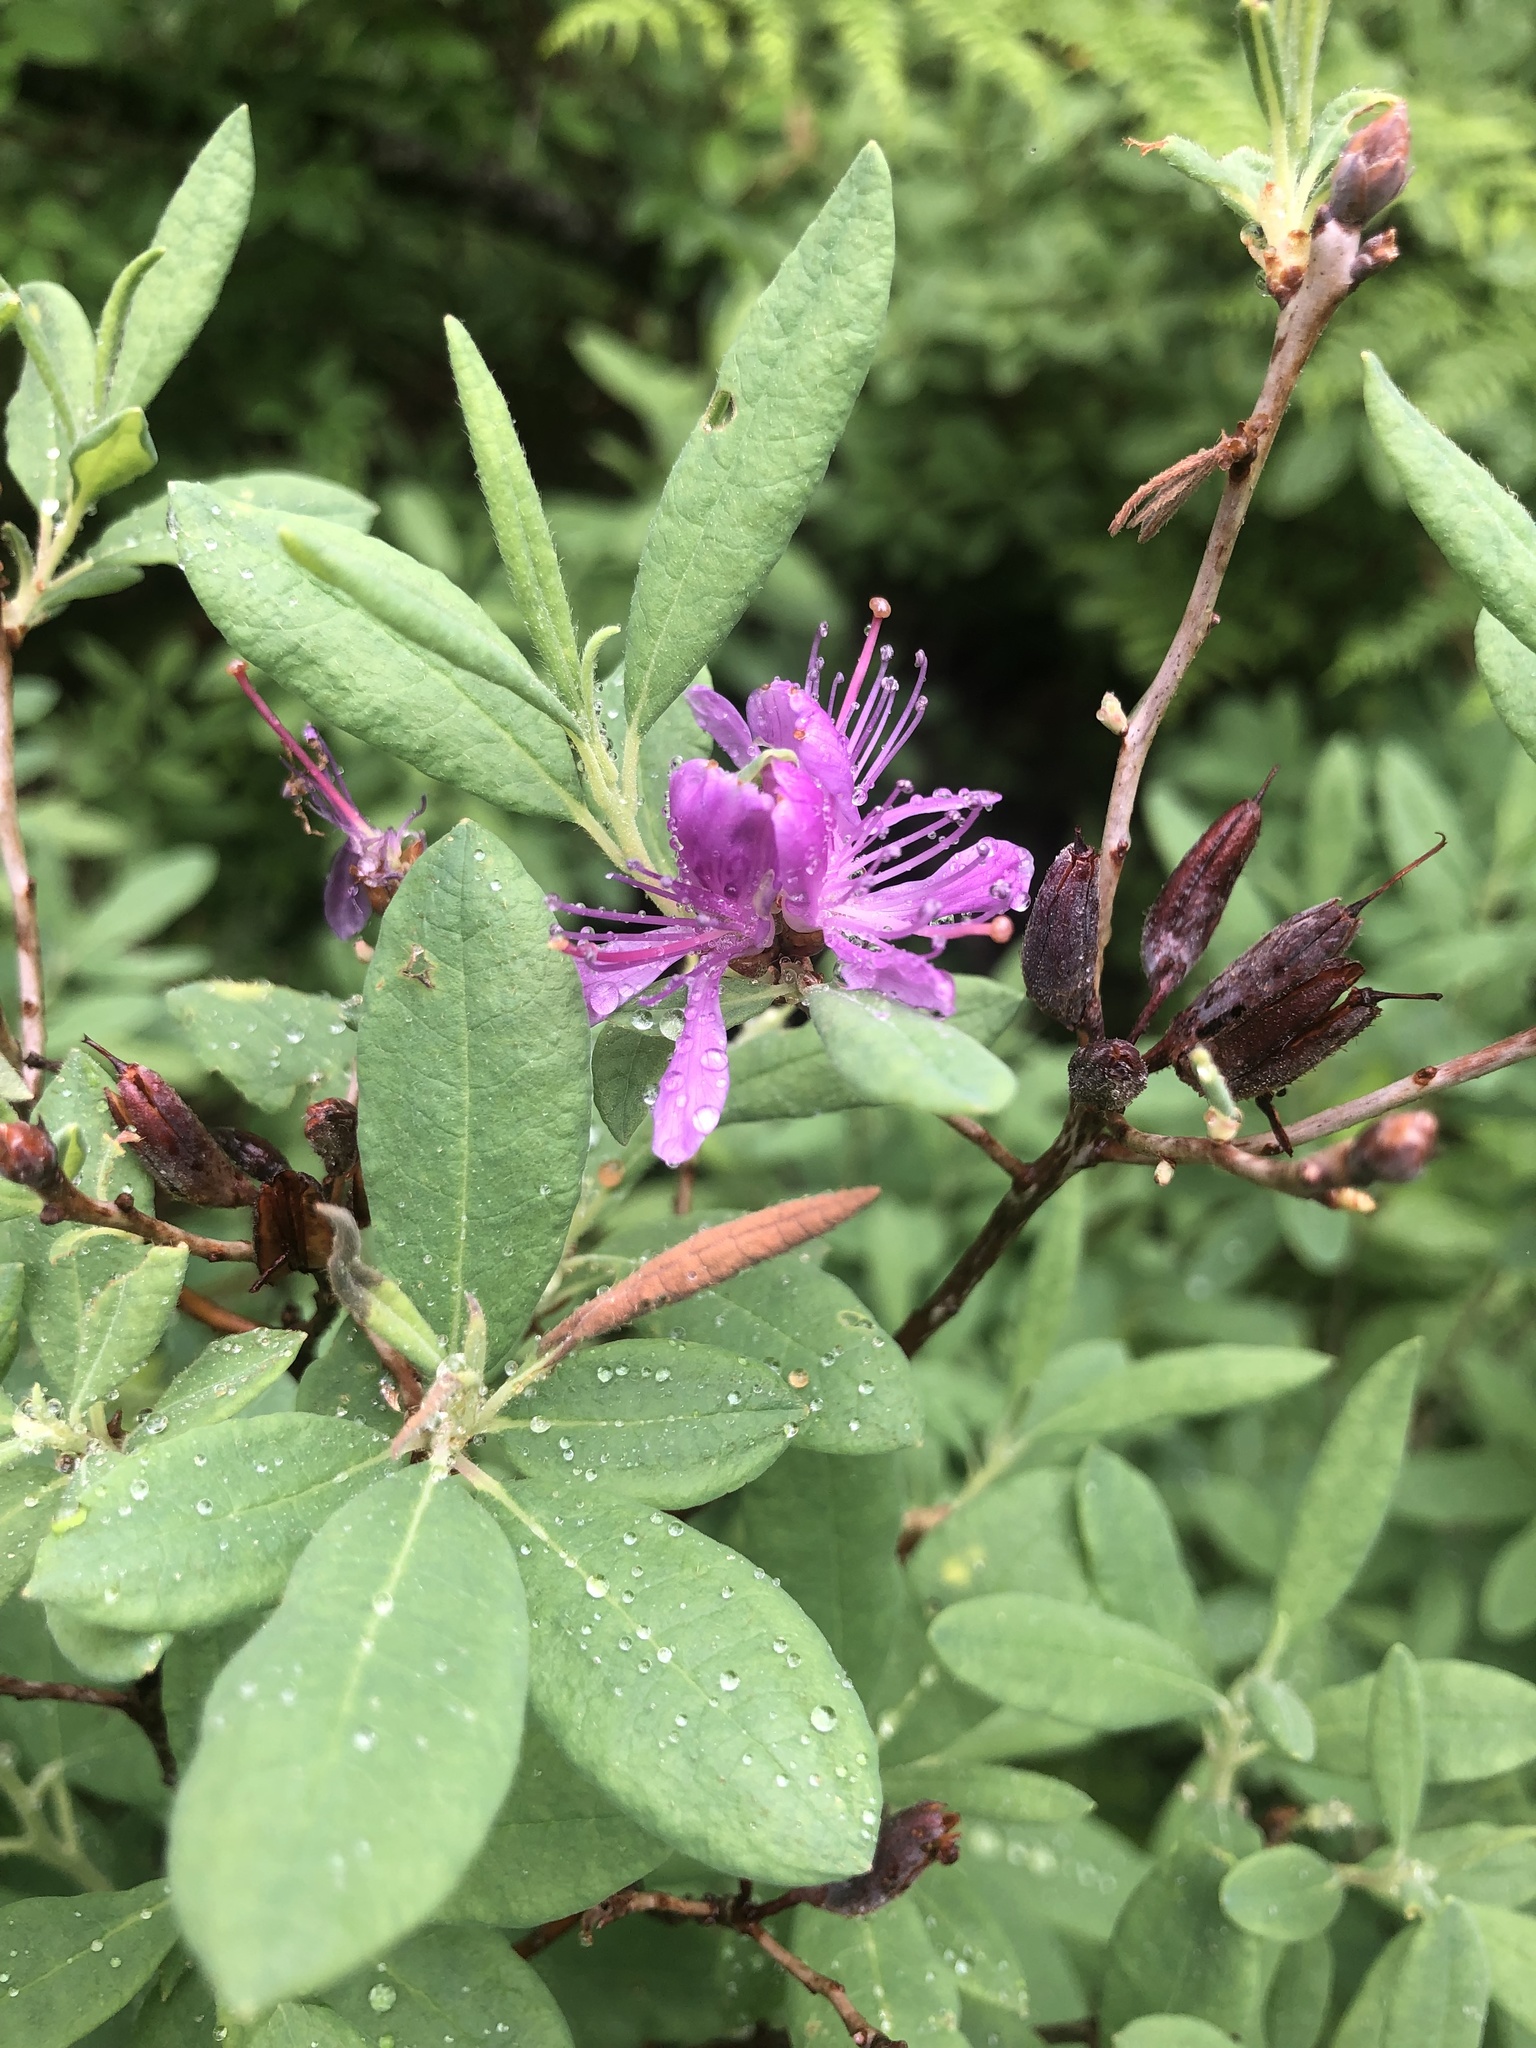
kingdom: Plantae
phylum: Tracheophyta
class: Magnoliopsida
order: Ericales
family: Ericaceae
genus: Rhododendron
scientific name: Rhododendron canadense
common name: Rhodora
